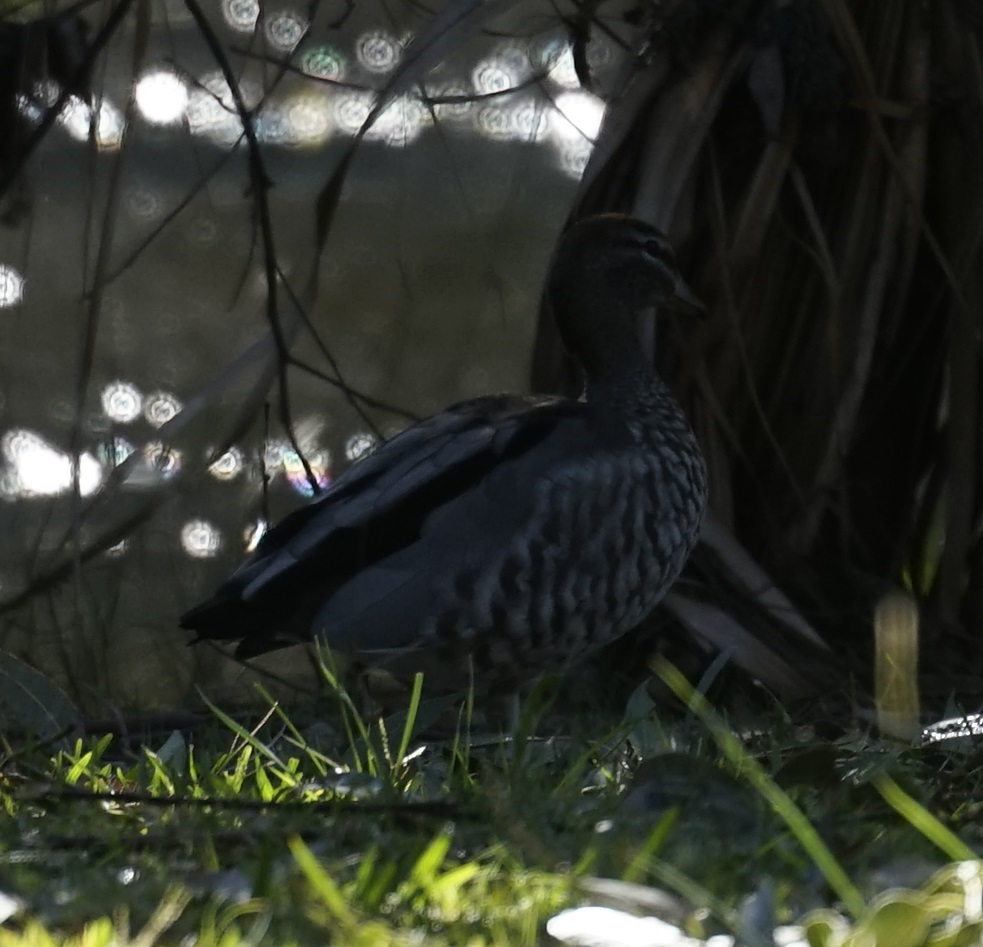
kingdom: Animalia
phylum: Chordata
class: Aves
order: Anseriformes
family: Anatidae
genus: Chenonetta
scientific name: Chenonetta jubata
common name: Maned duck
